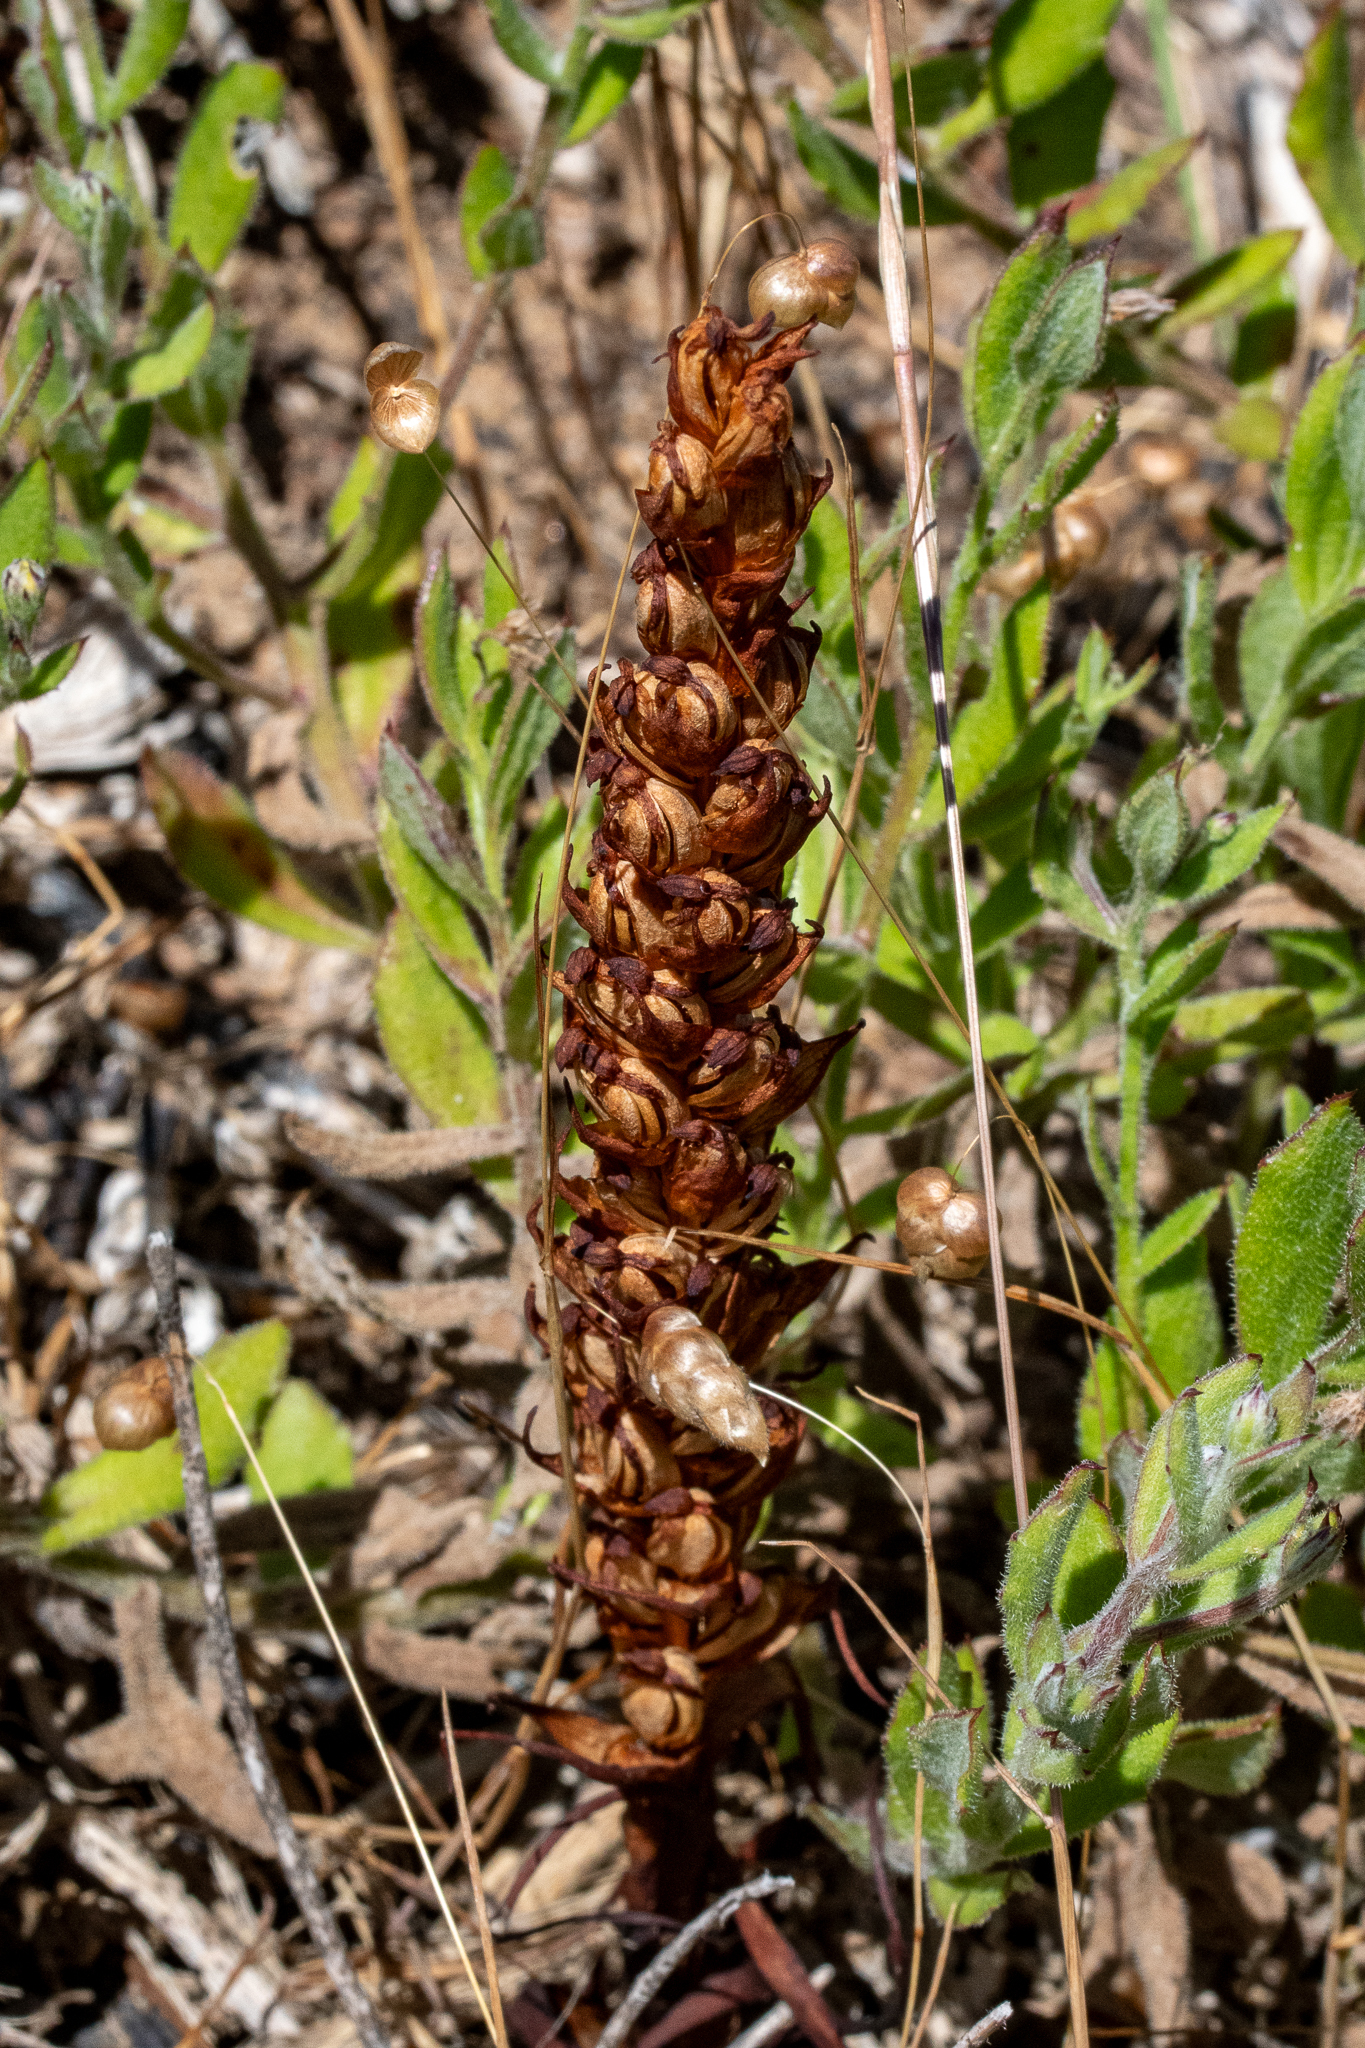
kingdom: Plantae
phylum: Tracheophyta
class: Liliopsida
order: Asparagales
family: Orchidaceae
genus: Disa
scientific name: Disa bracteata
